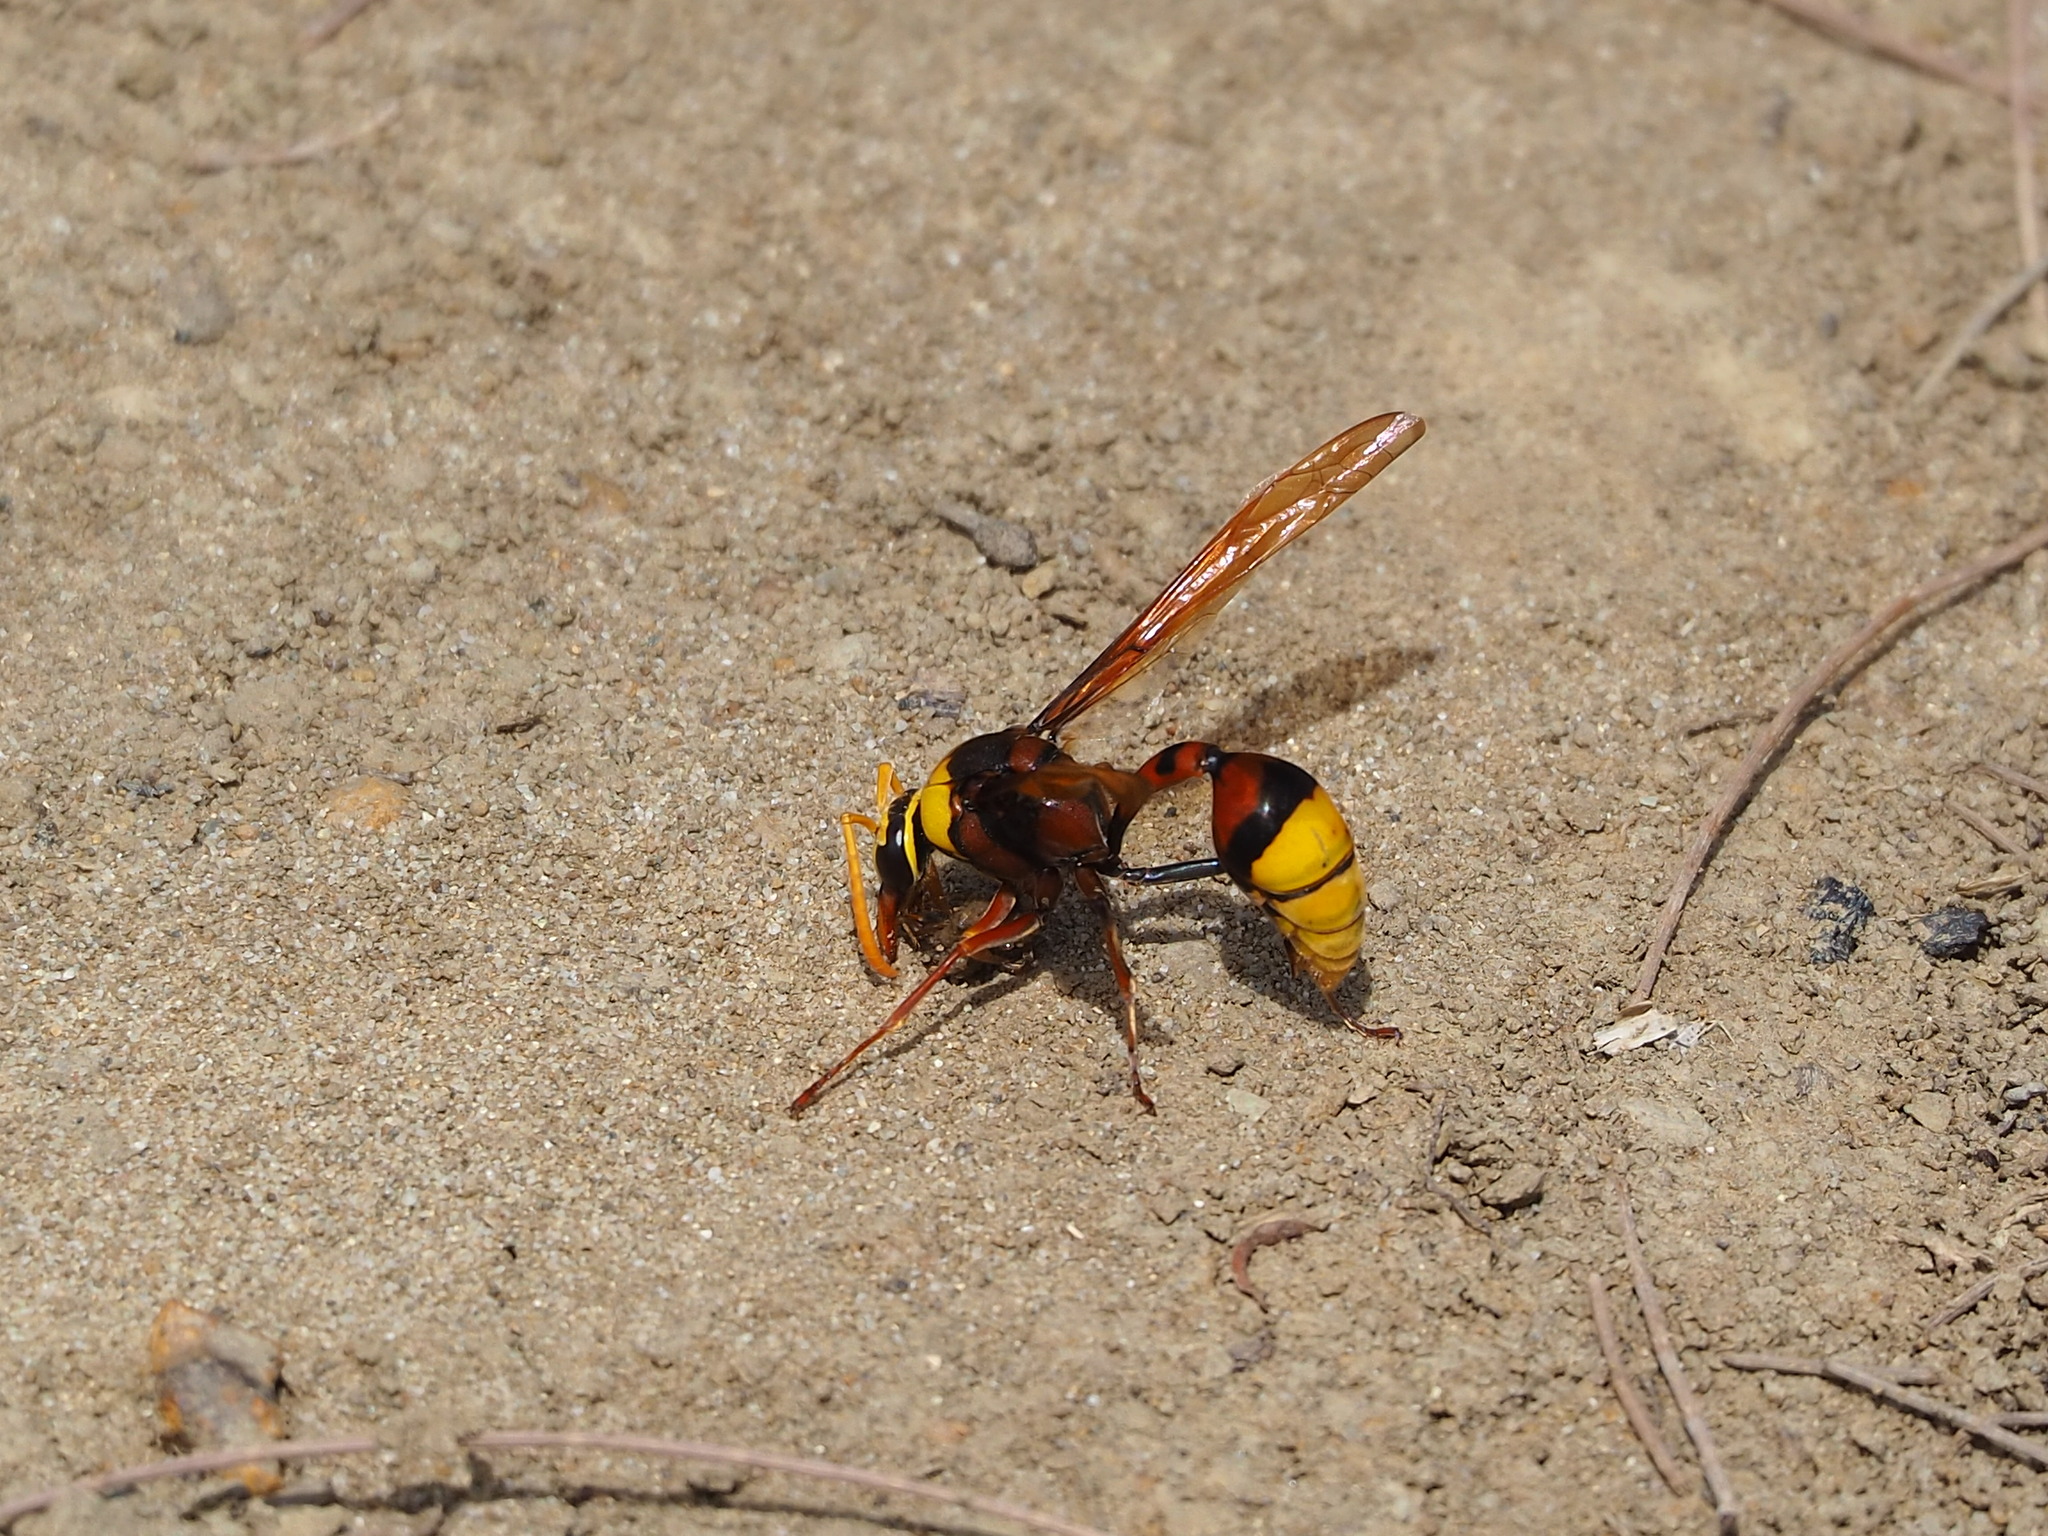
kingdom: Animalia
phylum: Arthropoda
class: Insecta
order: Hymenoptera
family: Eumenidae
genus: Delta
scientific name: Delta pyriforme
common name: Wasp
